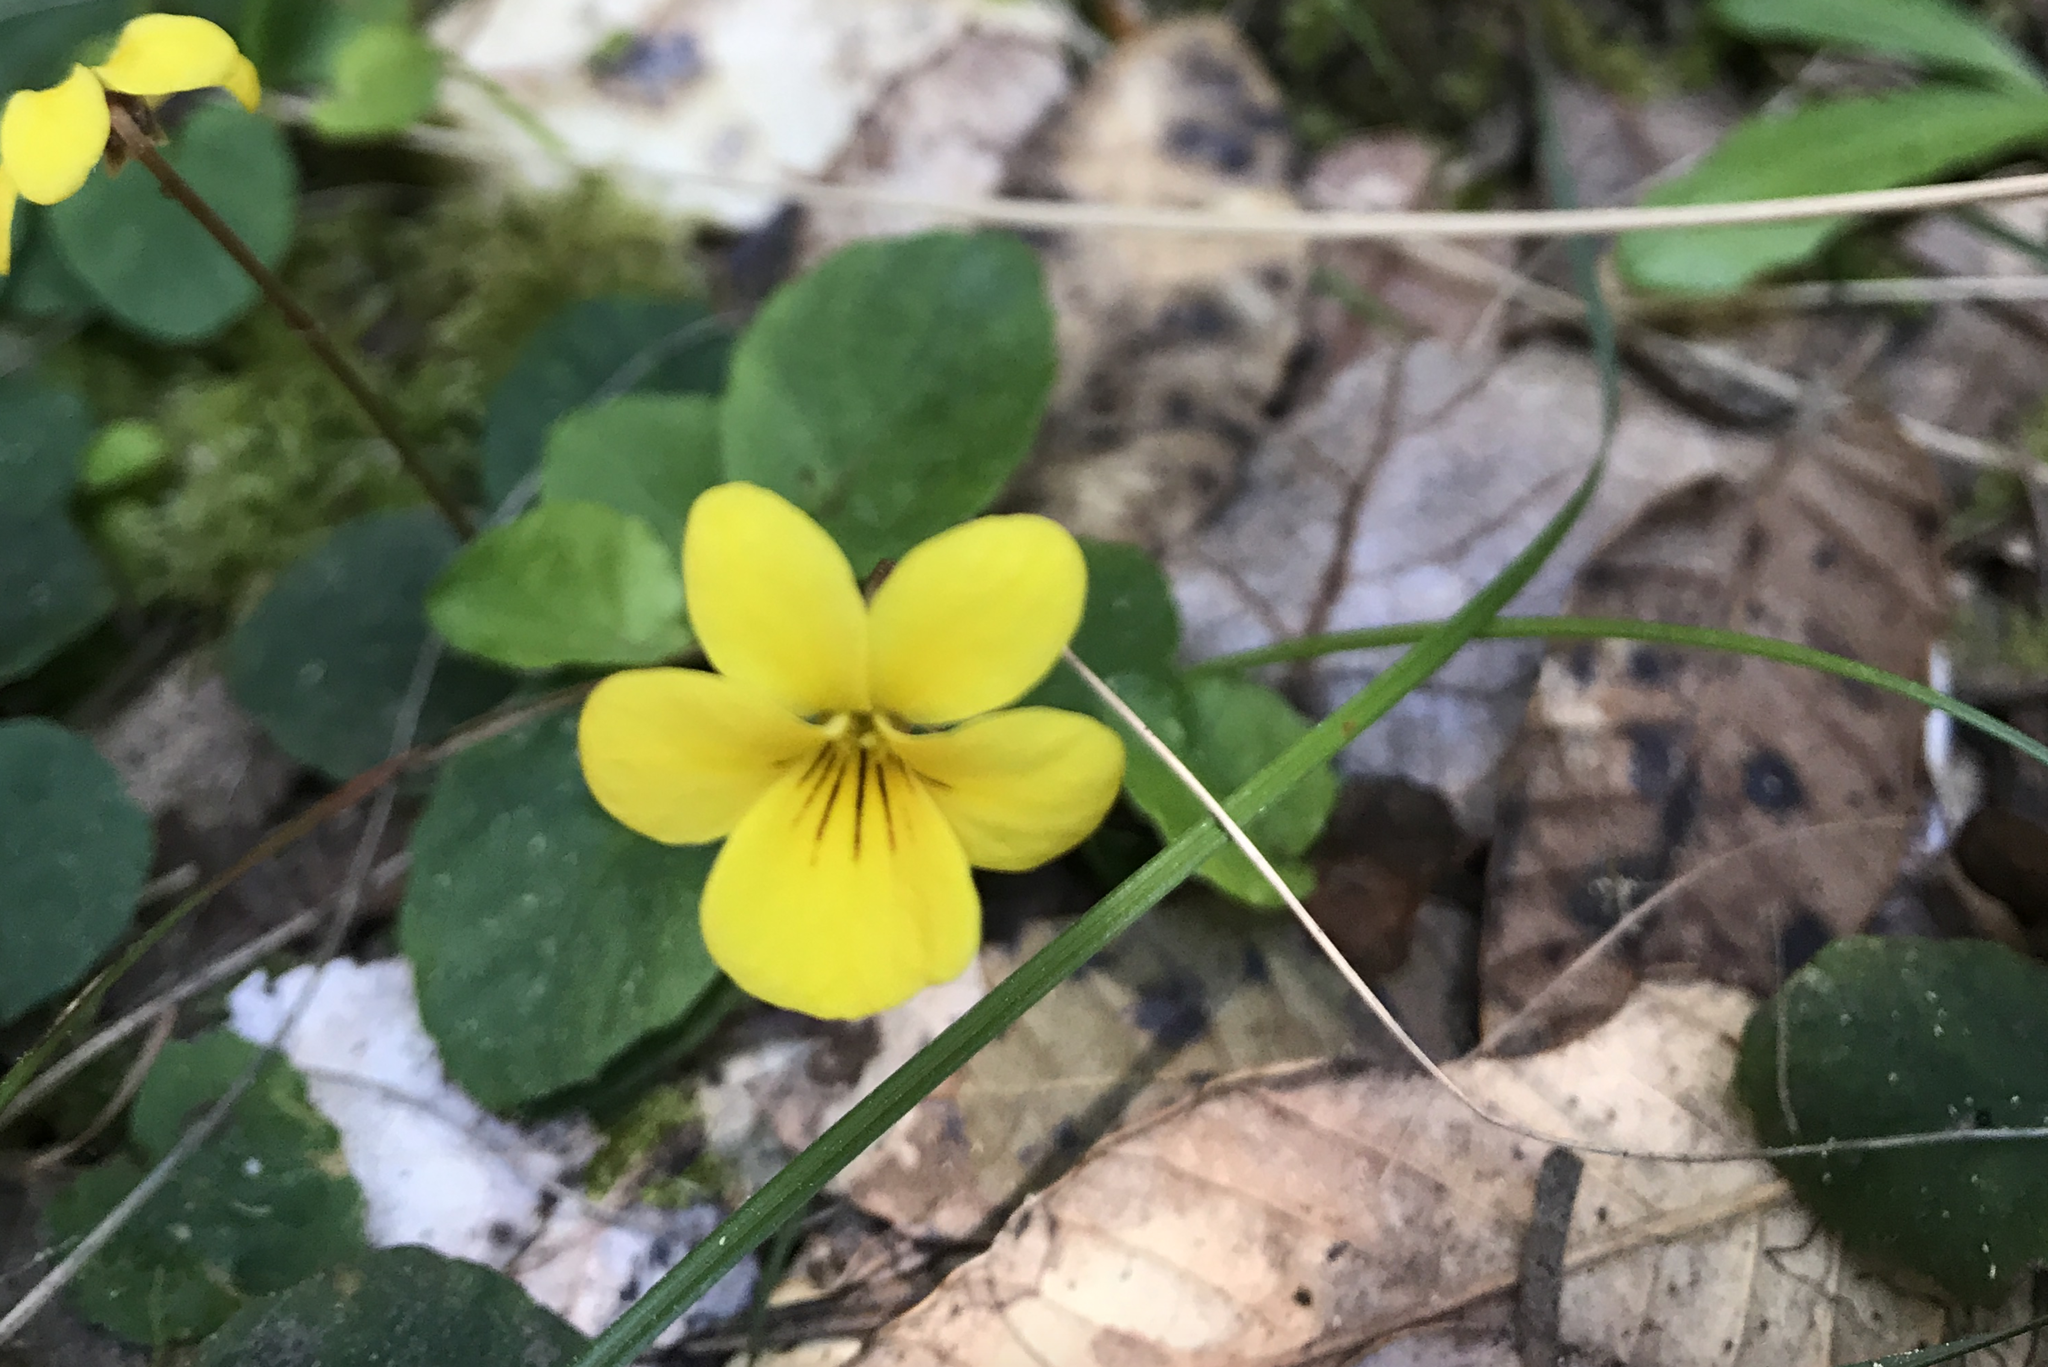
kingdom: Plantae
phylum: Tracheophyta
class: Magnoliopsida
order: Malpighiales
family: Violaceae
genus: Viola
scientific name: Viola sempervirens
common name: Evergreen violet
